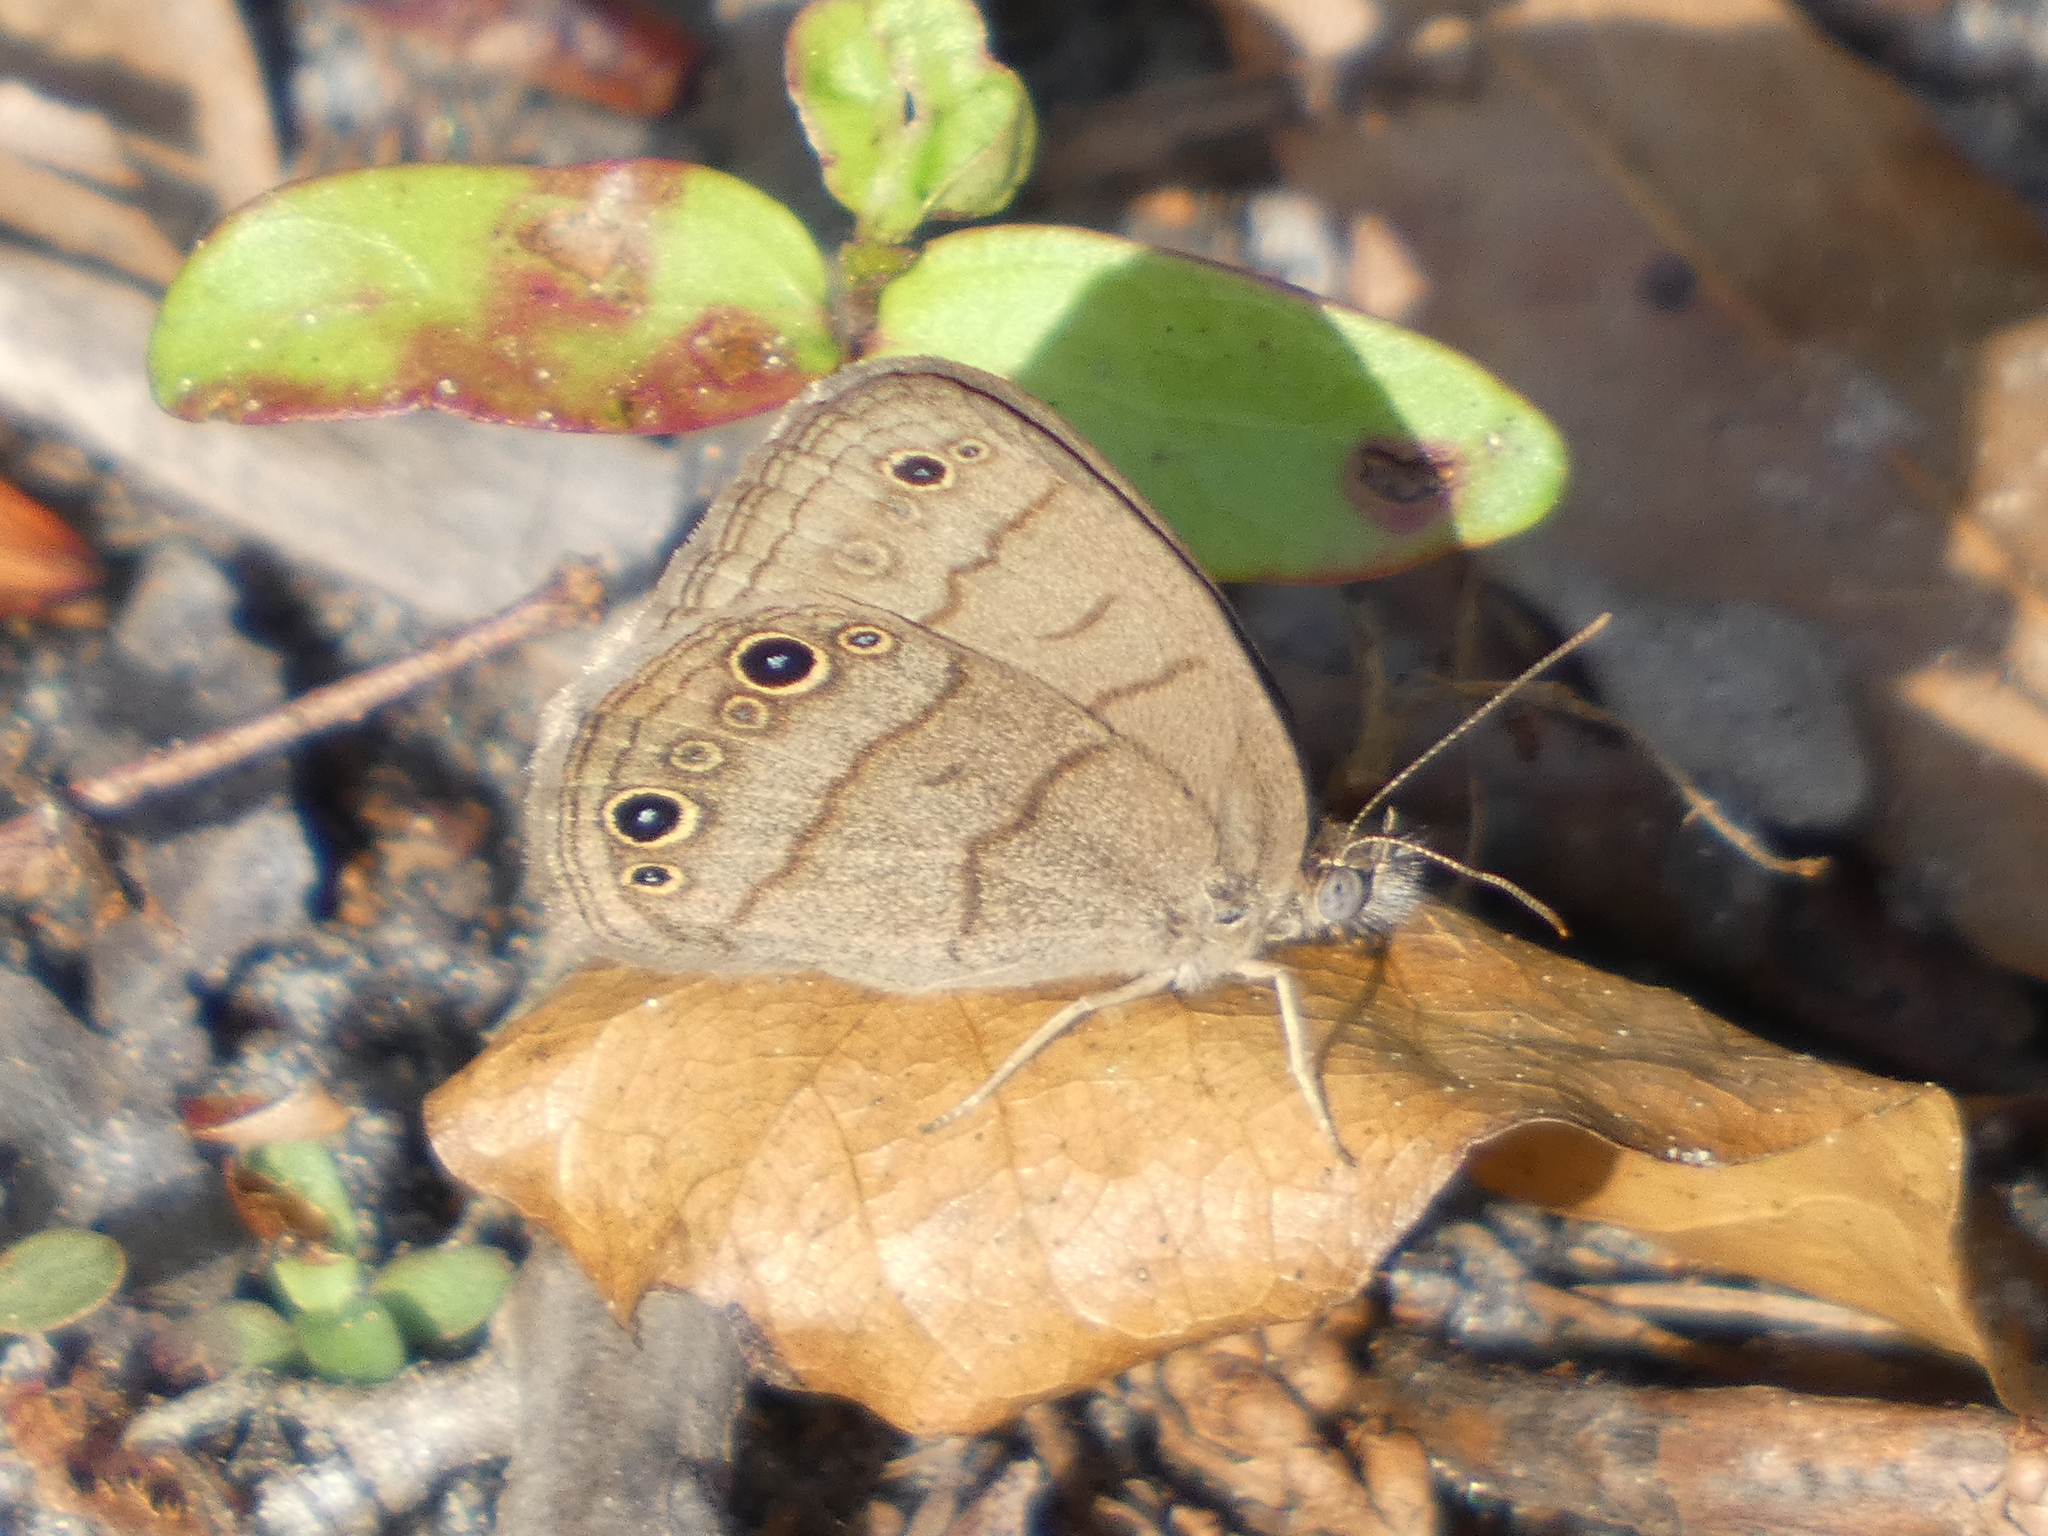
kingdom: Animalia
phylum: Arthropoda
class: Insecta
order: Lepidoptera
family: Nymphalidae
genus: Hermeuptychia
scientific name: Hermeuptychia hermes
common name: Hermes satyr
